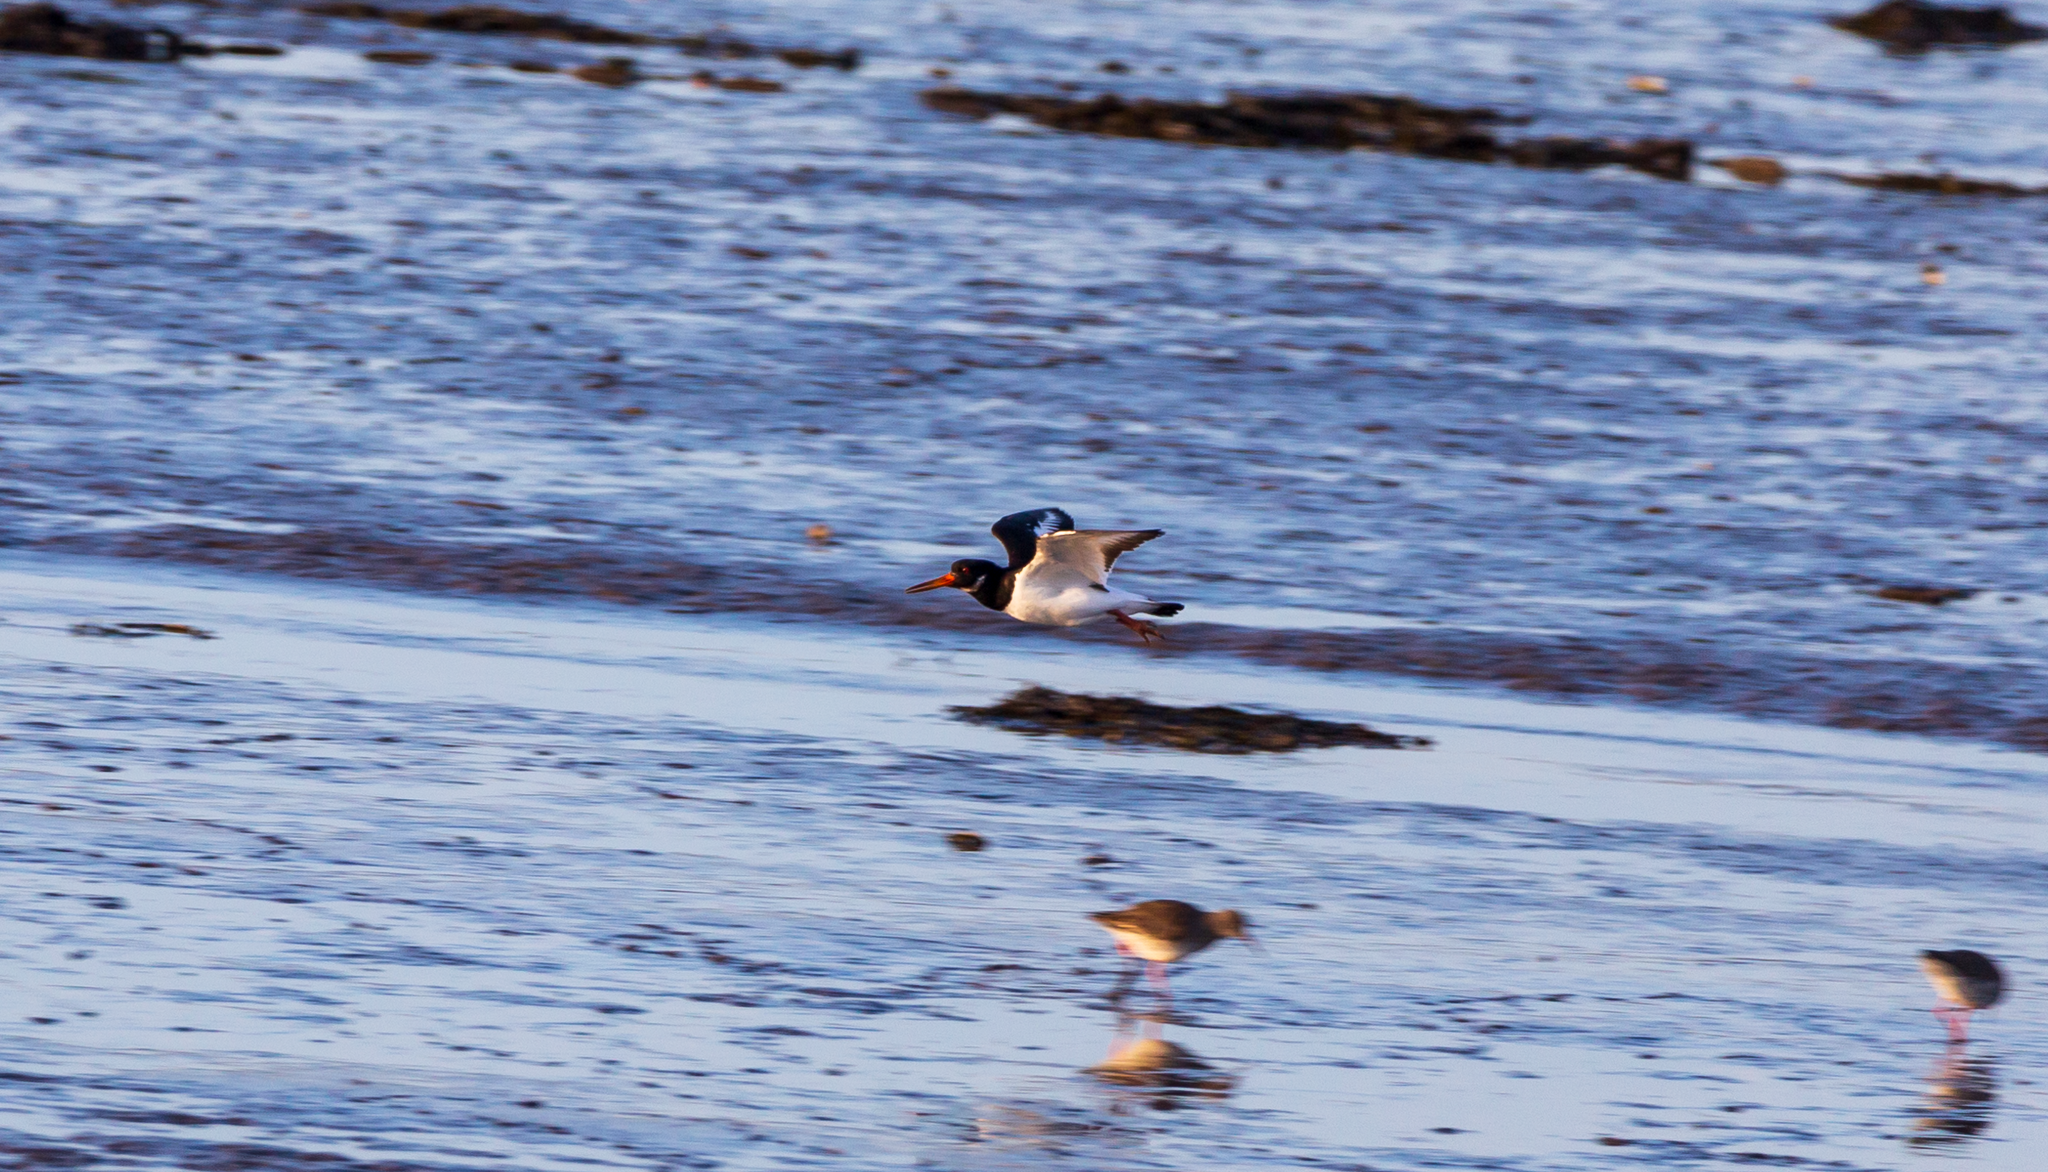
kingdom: Animalia
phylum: Chordata
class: Aves
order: Charadriiformes
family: Haematopodidae
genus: Haematopus
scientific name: Haematopus ostralegus
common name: Eurasian oystercatcher
